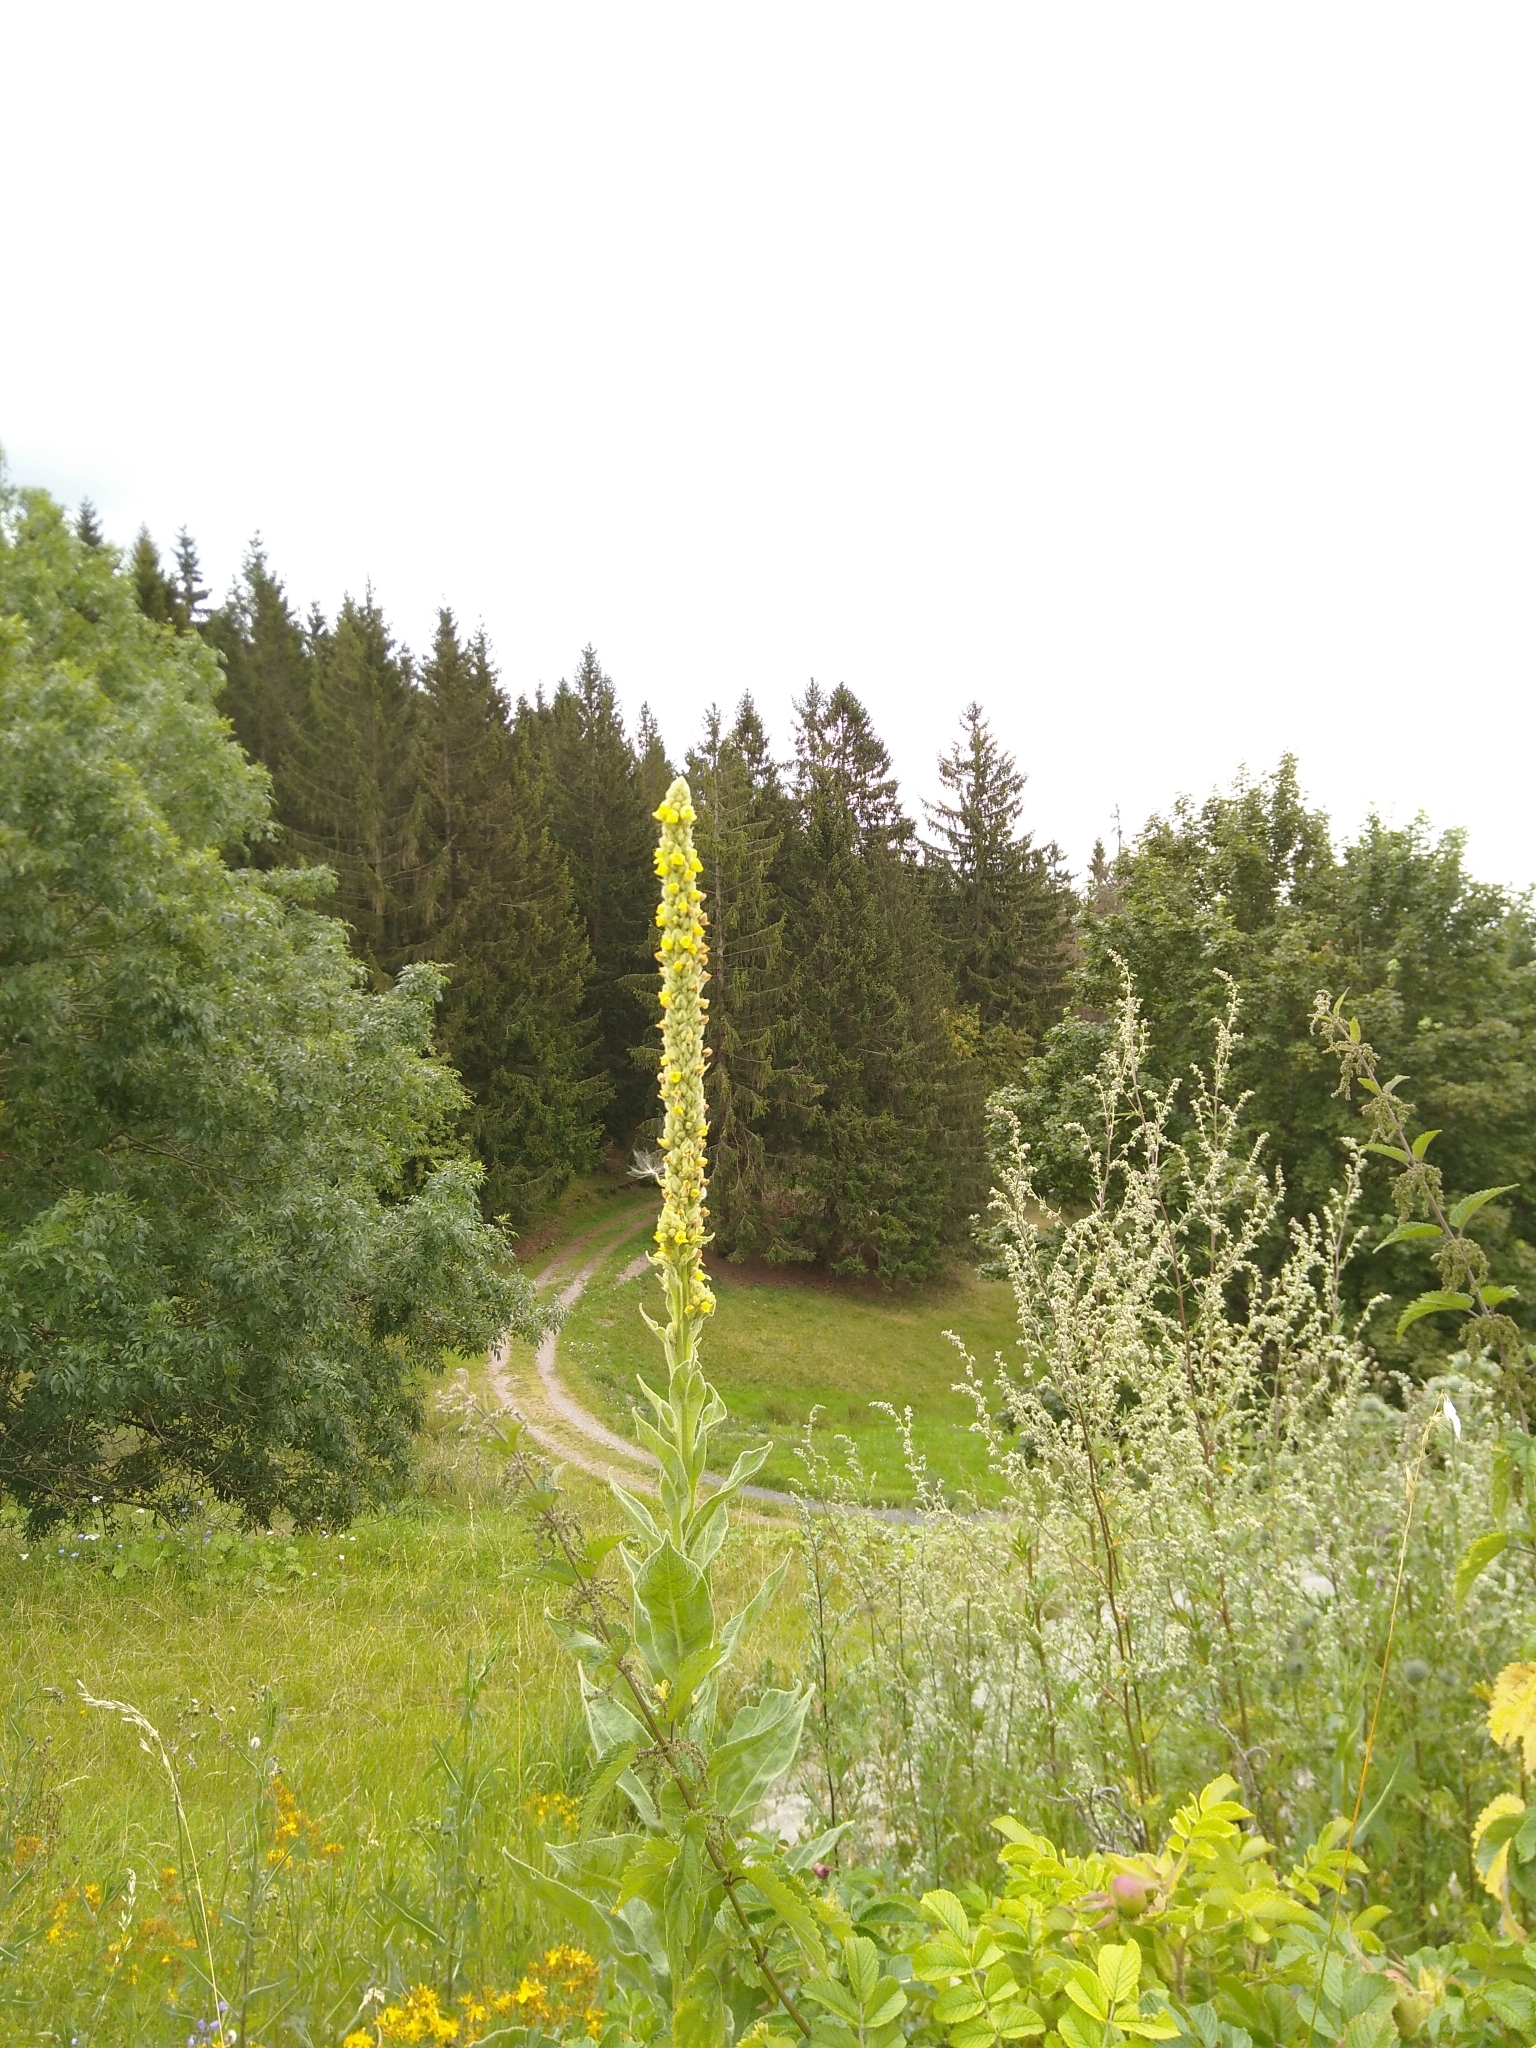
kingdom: Plantae
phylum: Tracheophyta
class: Magnoliopsida
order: Lamiales
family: Scrophulariaceae
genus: Verbascum
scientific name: Verbascum thapsus
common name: Common mullein
